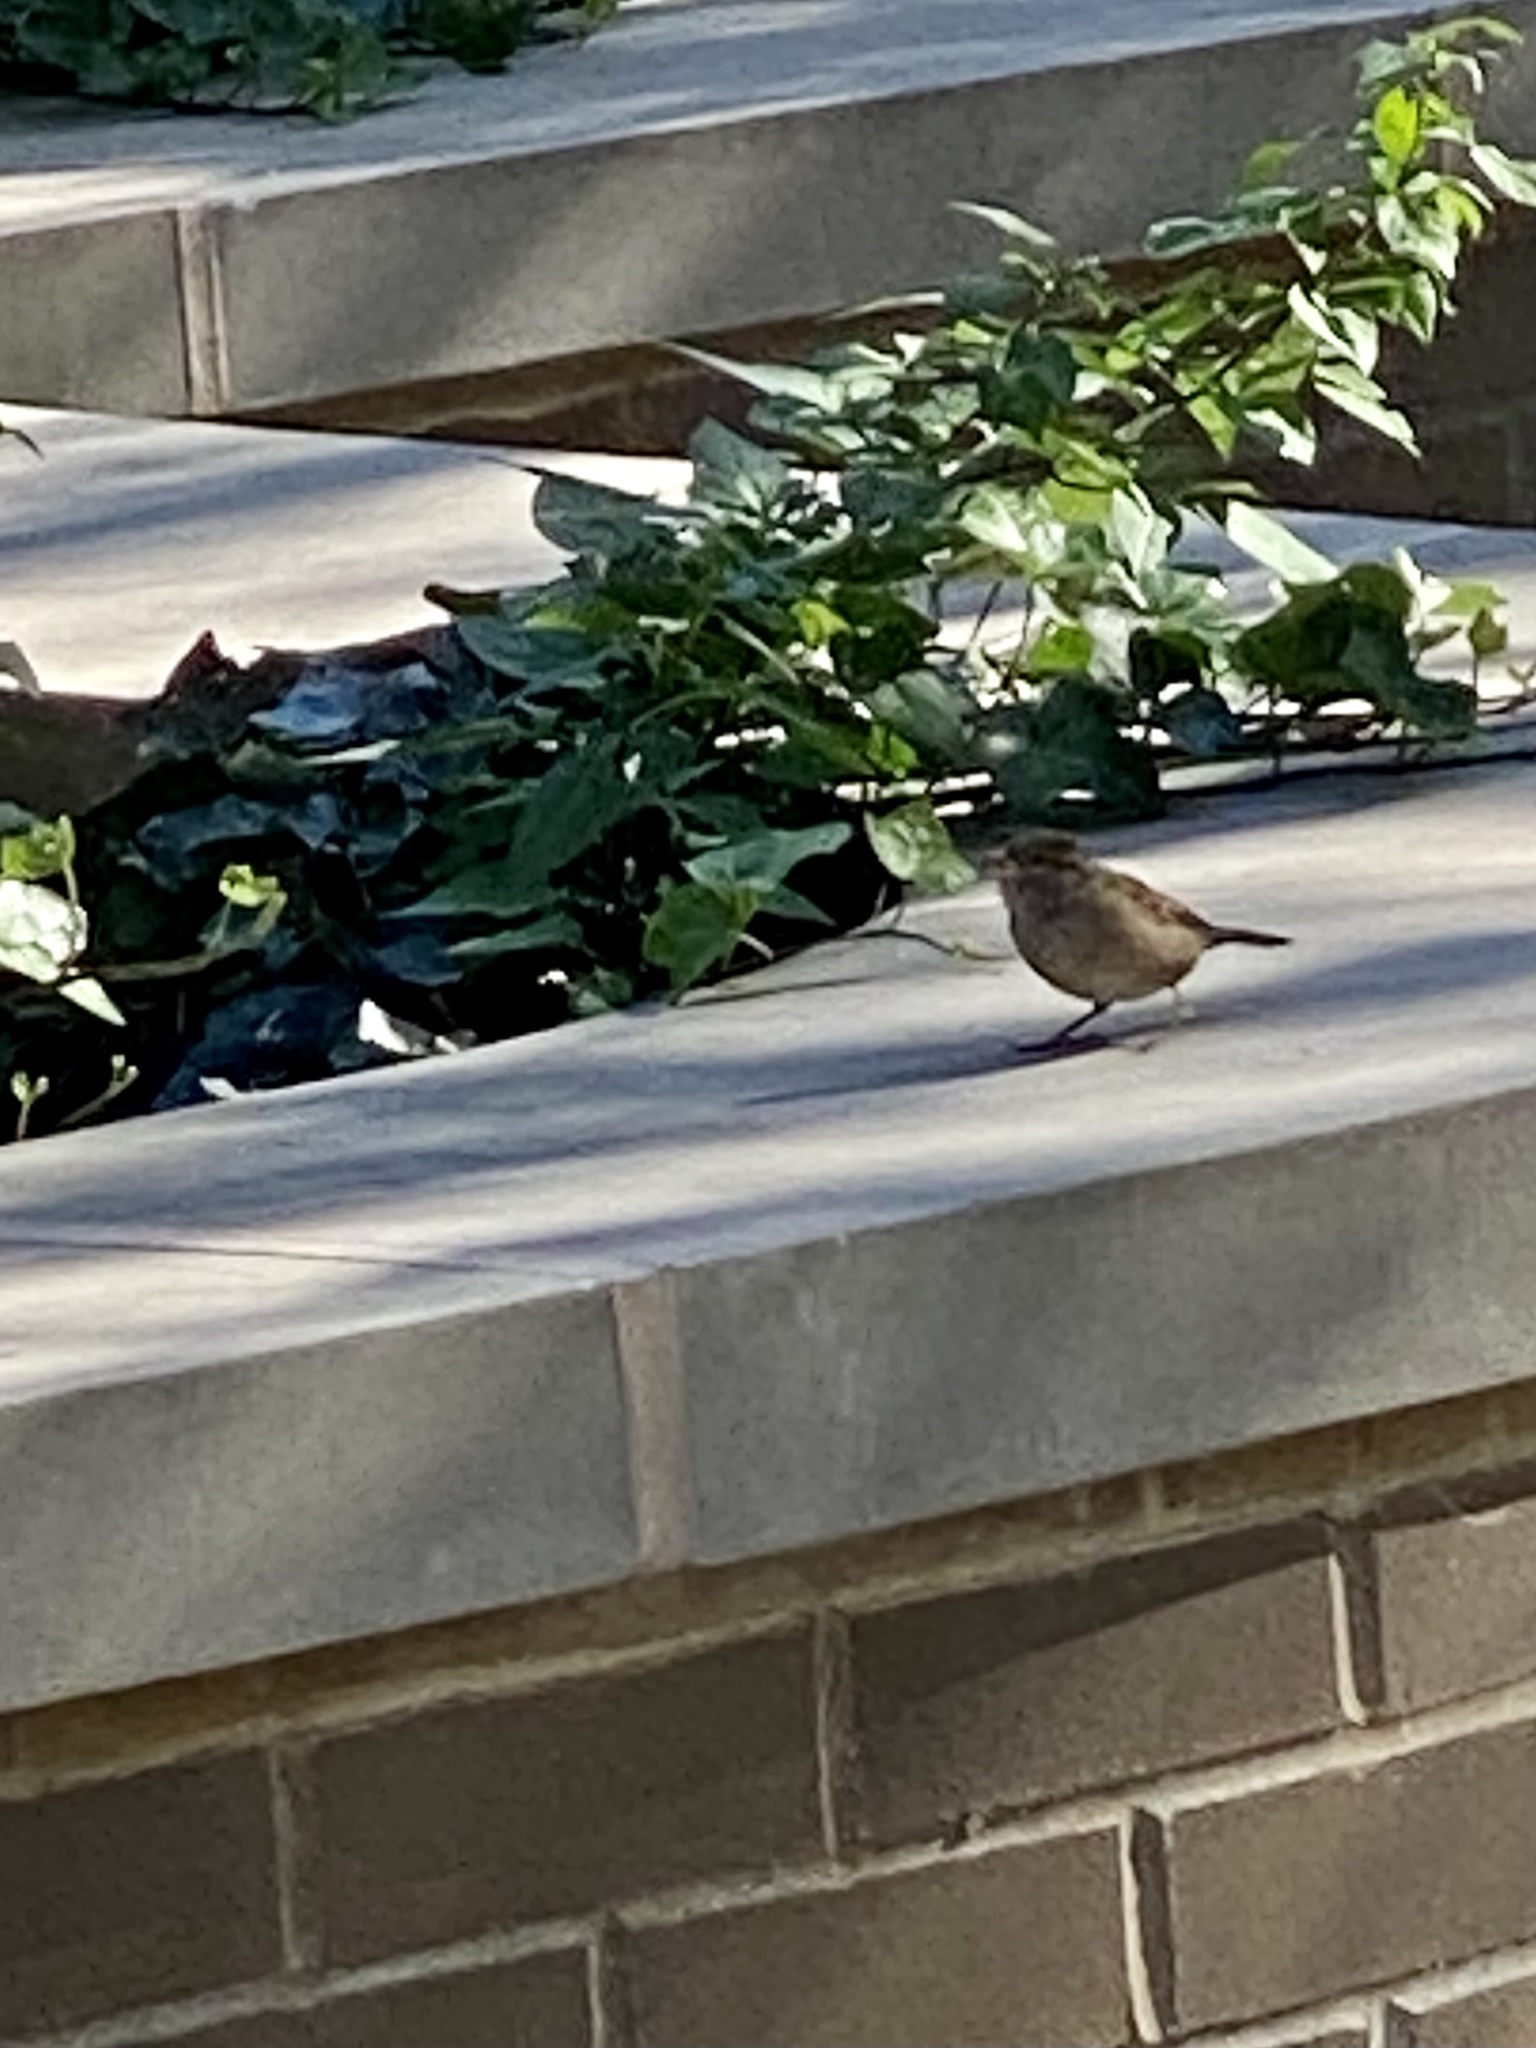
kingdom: Animalia
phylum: Chordata
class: Aves
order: Passeriformes
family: Passeridae
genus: Passer
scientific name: Passer domesticus
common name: House sparrow
